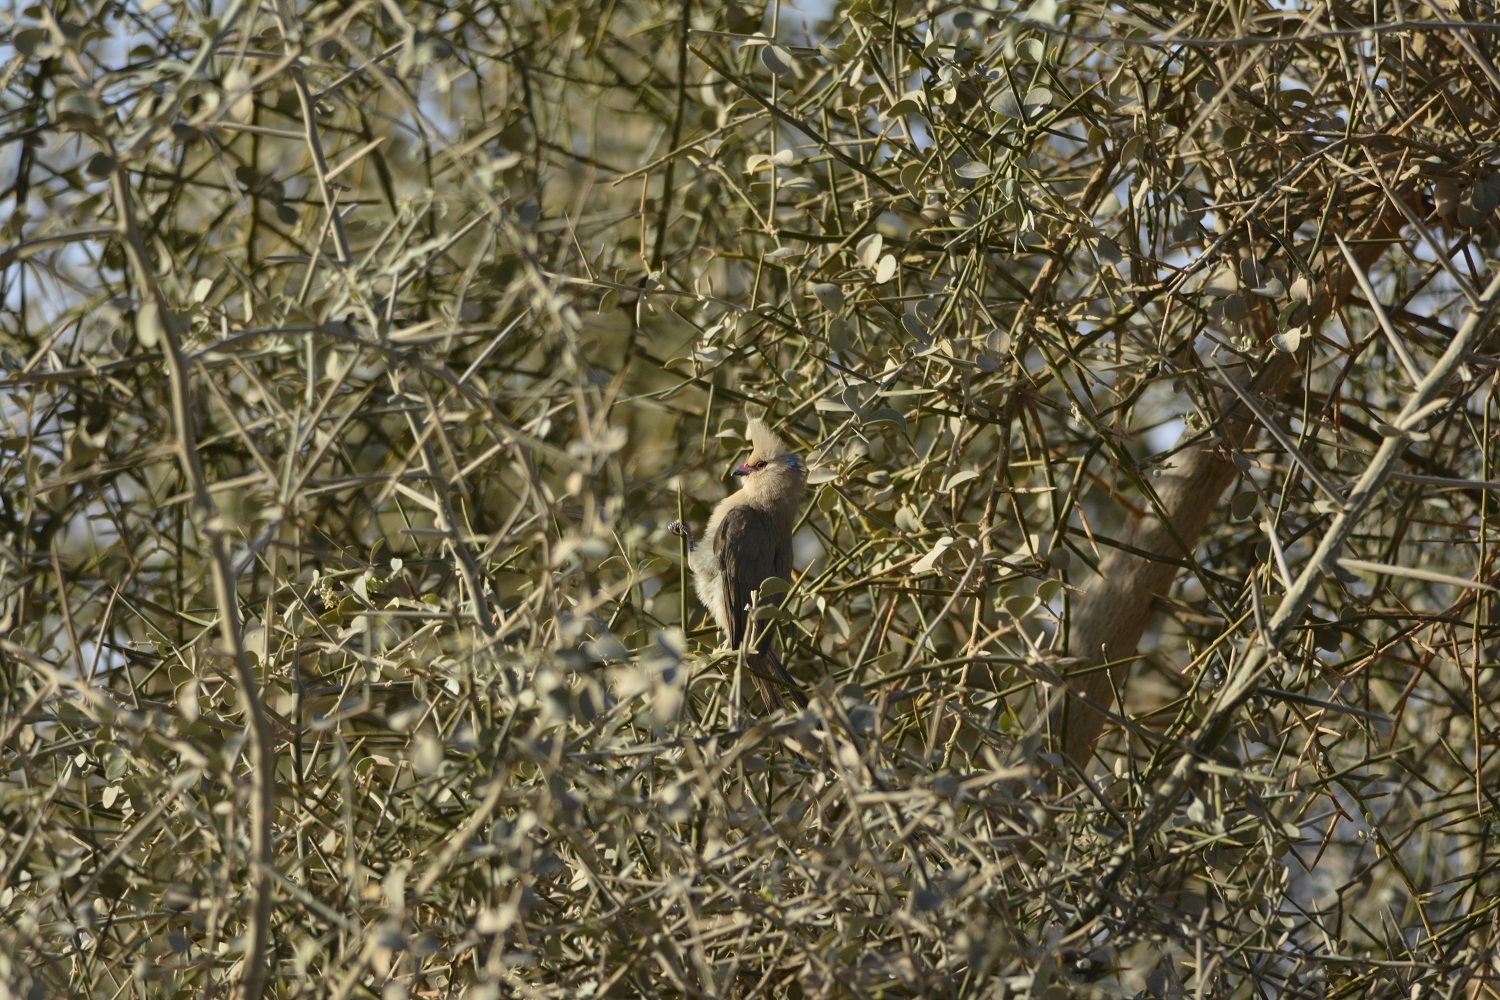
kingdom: Animalia
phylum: Chordata
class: Aves
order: Coliiformes
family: Coliidae
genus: Urocolius
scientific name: Urocolius macrourus
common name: Blue-naped mousebird
